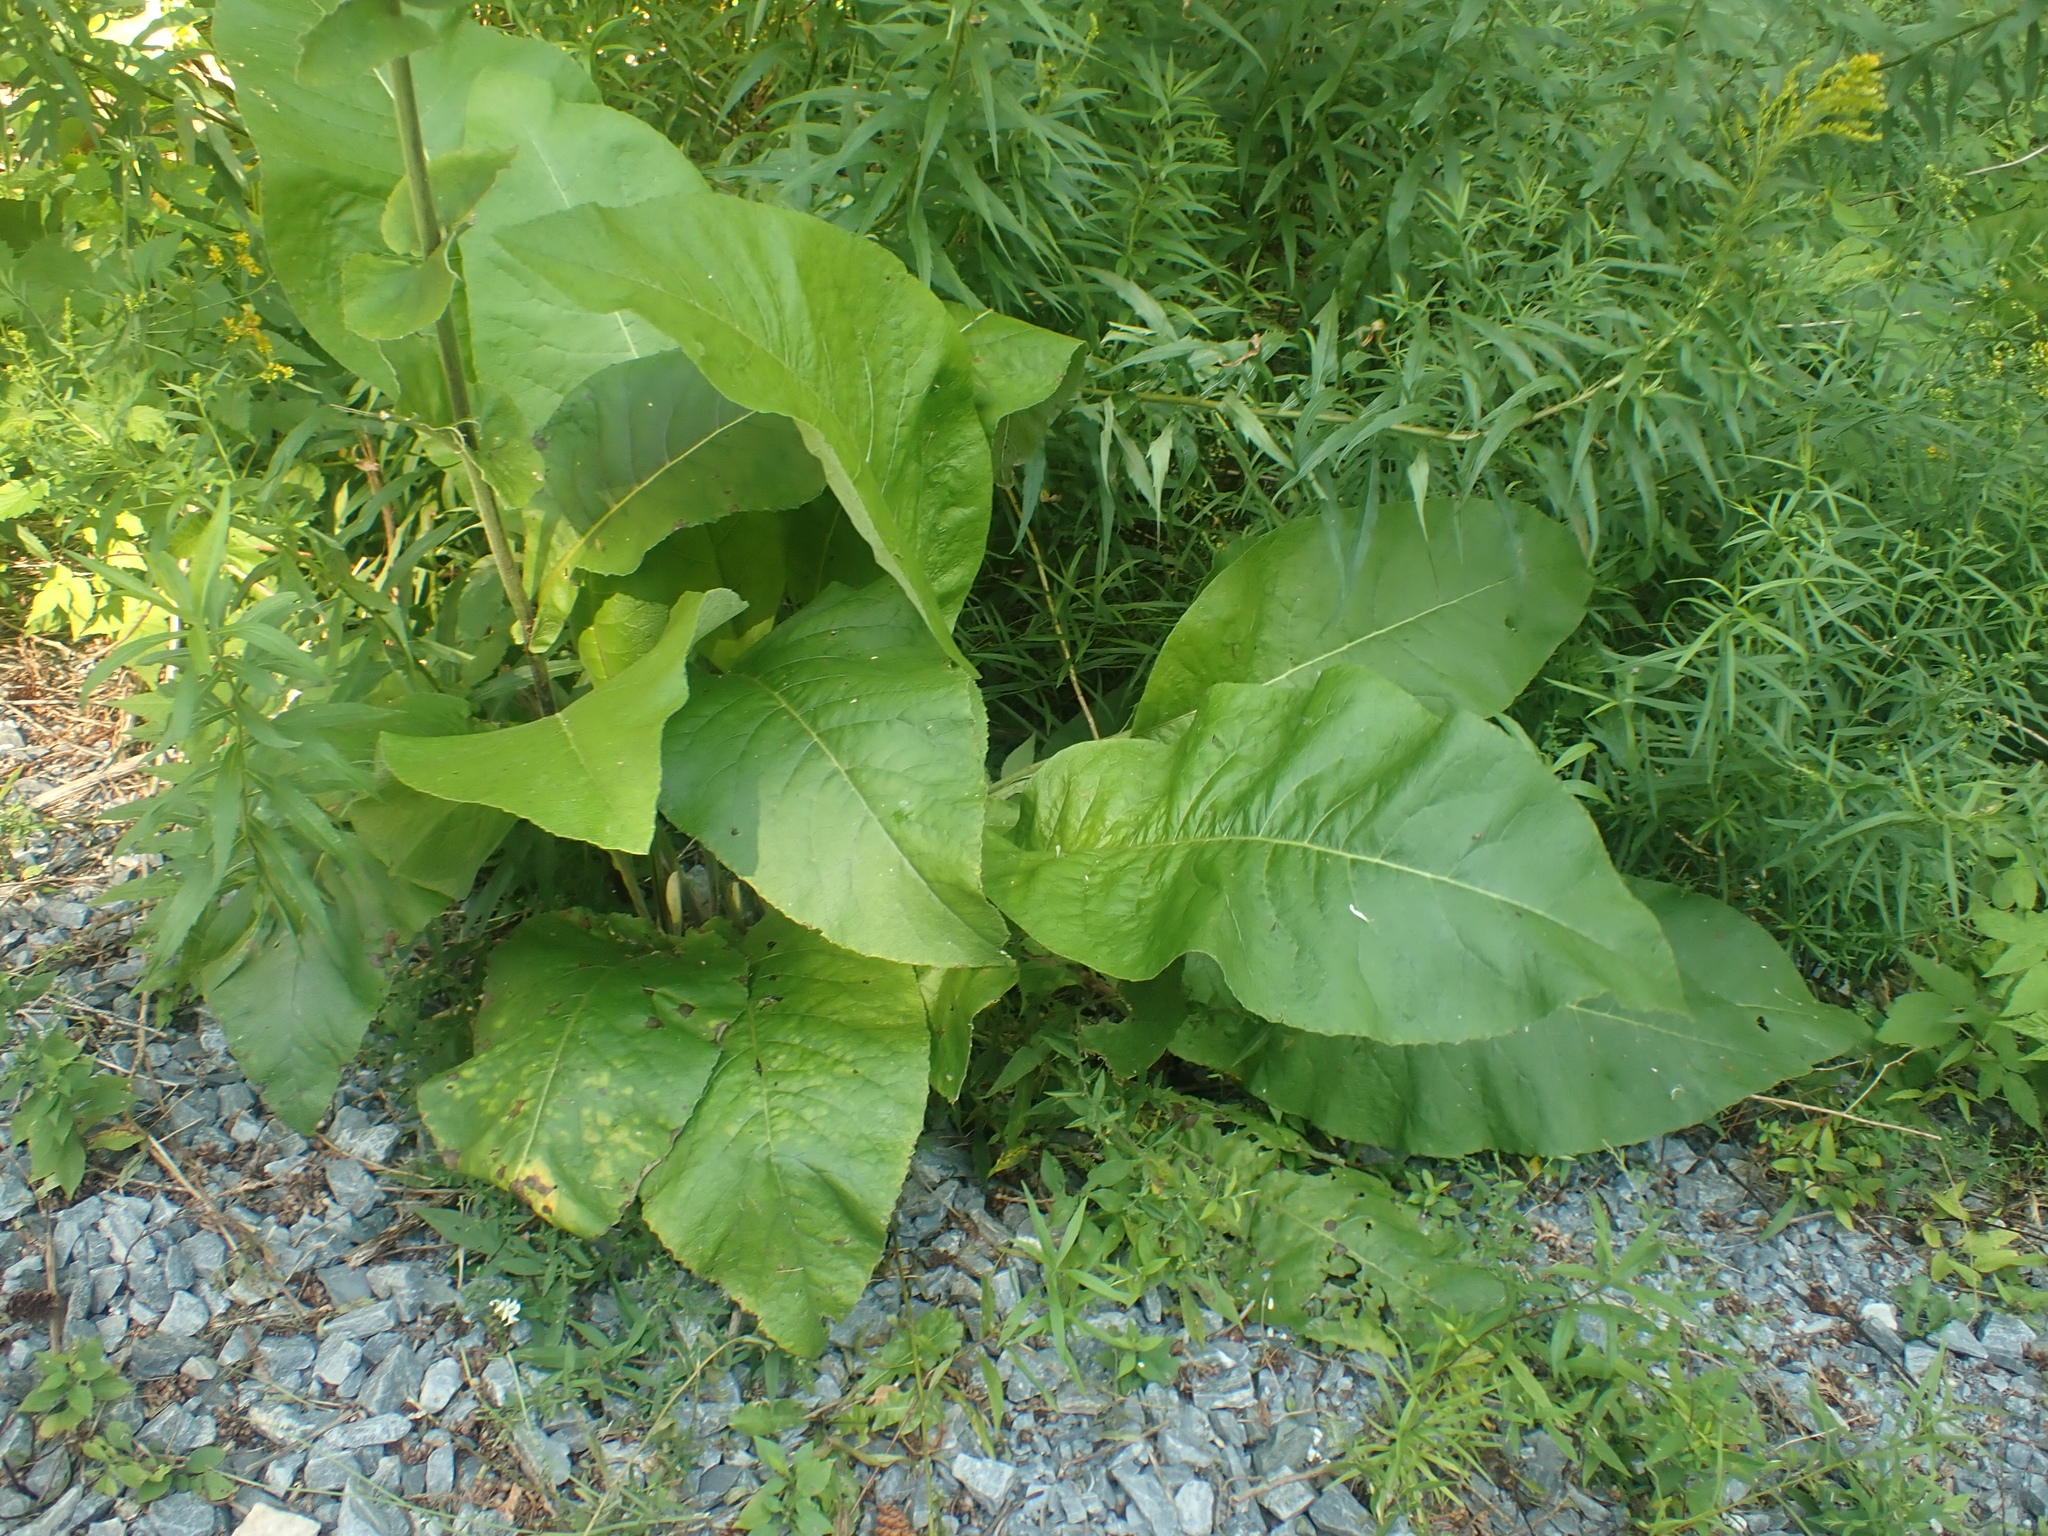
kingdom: Plantae
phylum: Tracheophyta
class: Magnoliopsida
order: Asterales
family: Asteraceae
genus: Inula
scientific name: Inula helenium
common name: Elecampane
